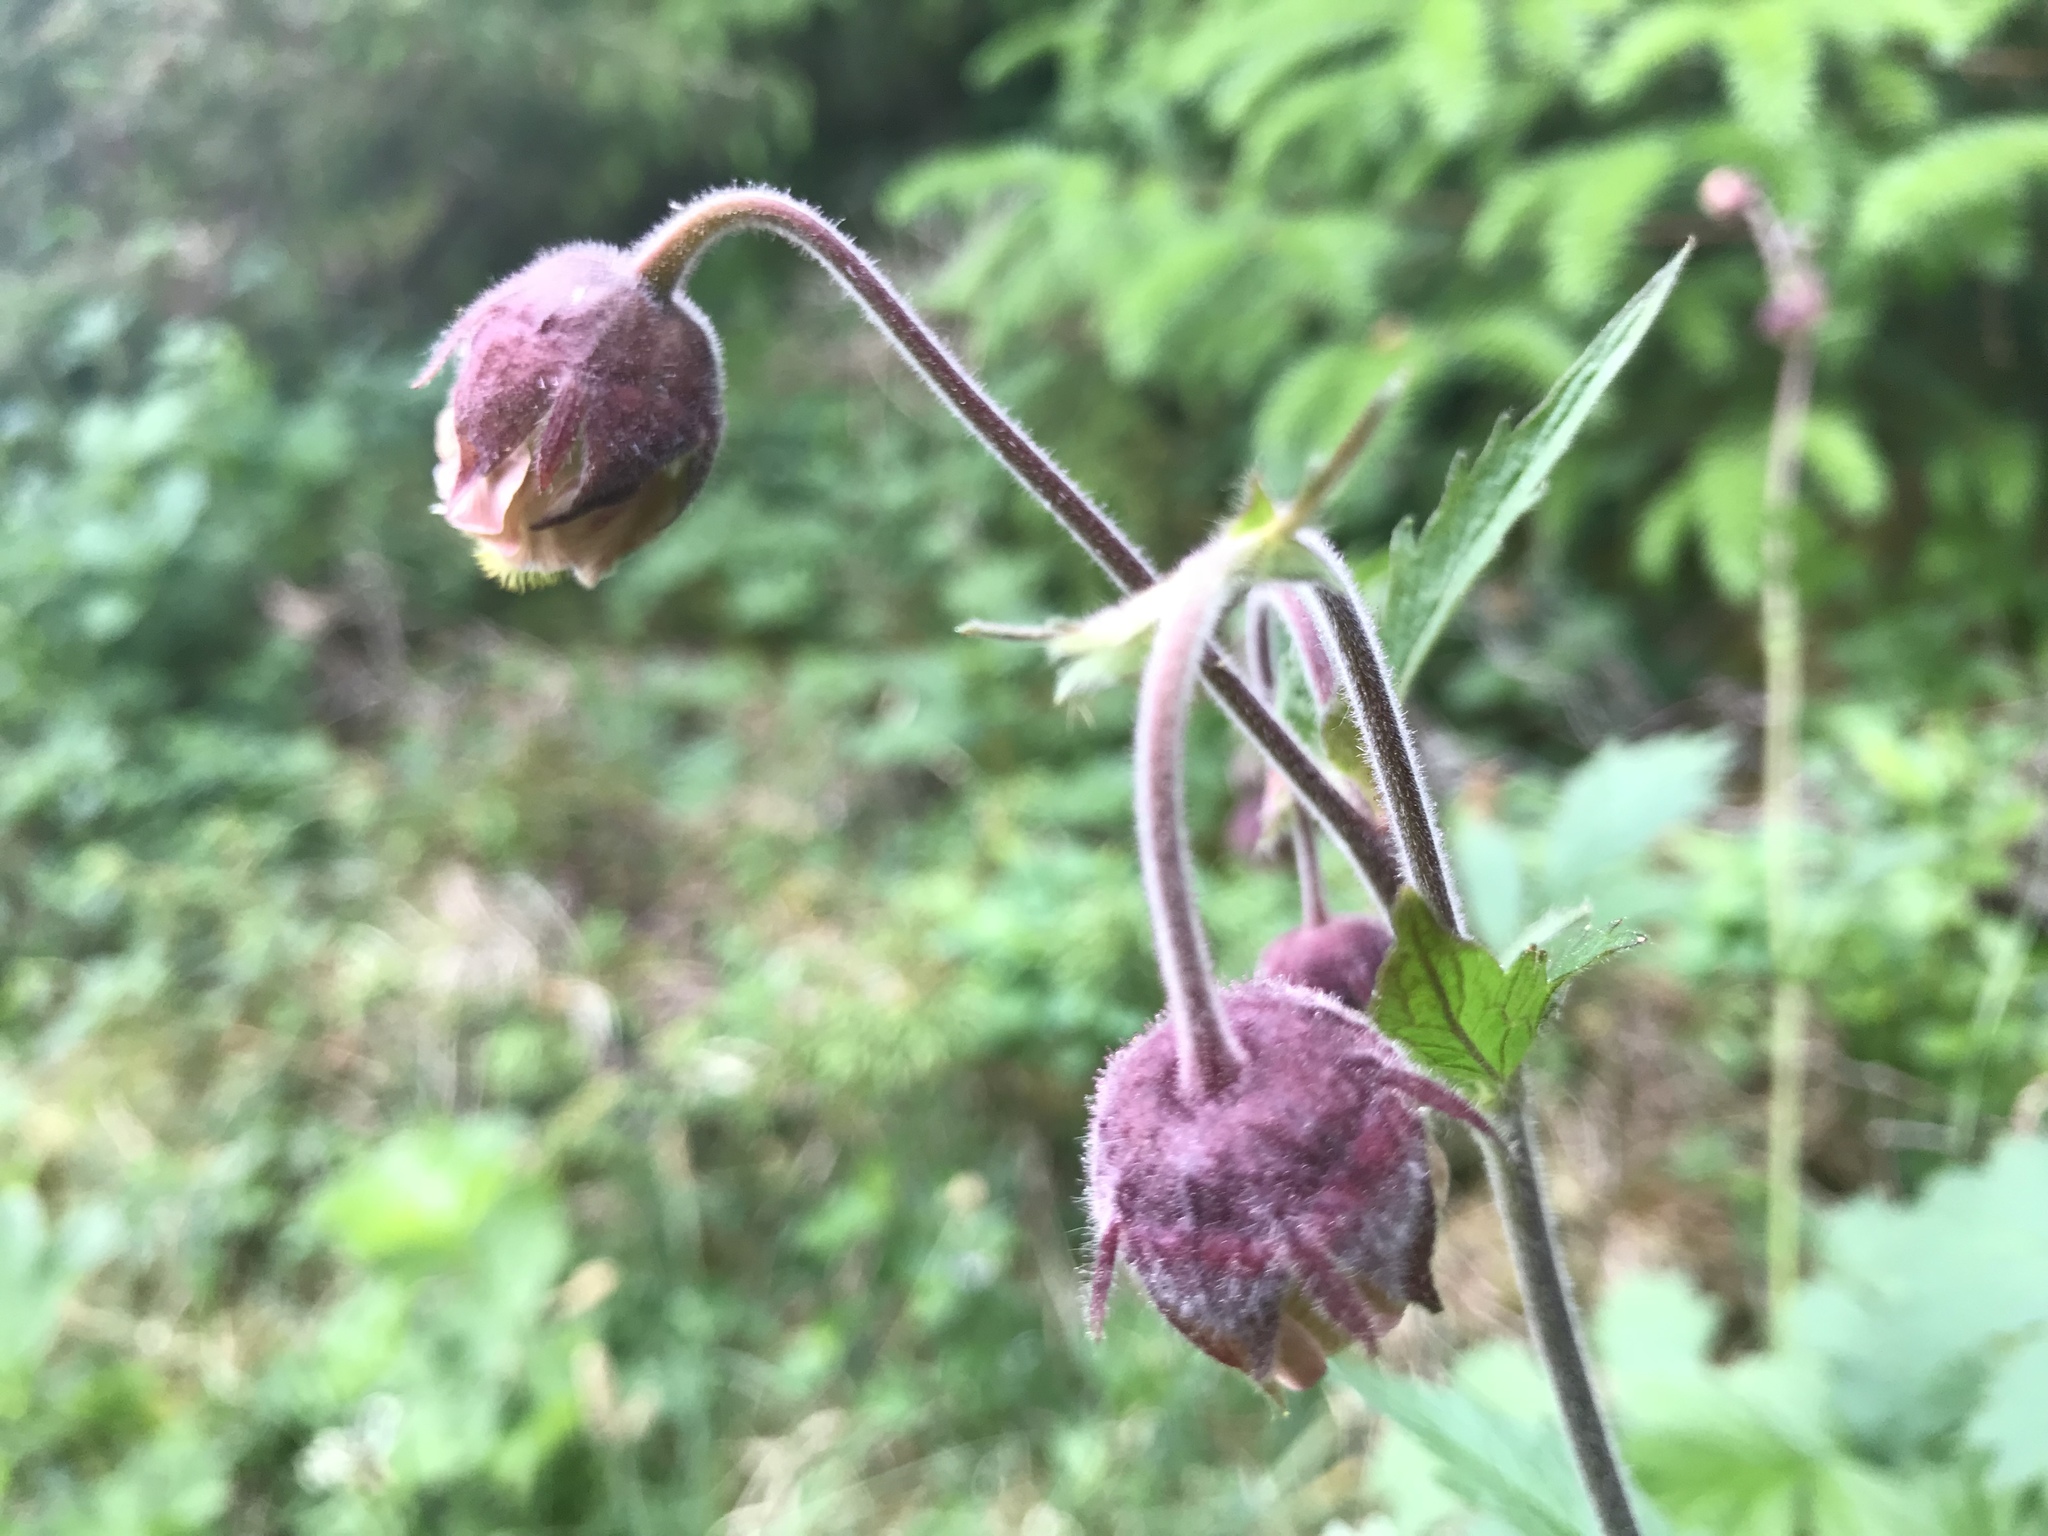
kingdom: Plantae
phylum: Tracheophyta
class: Magnoliopsida
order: Rosales
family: Rosaceae
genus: Geum
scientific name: Geum rivale
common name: Water avens
